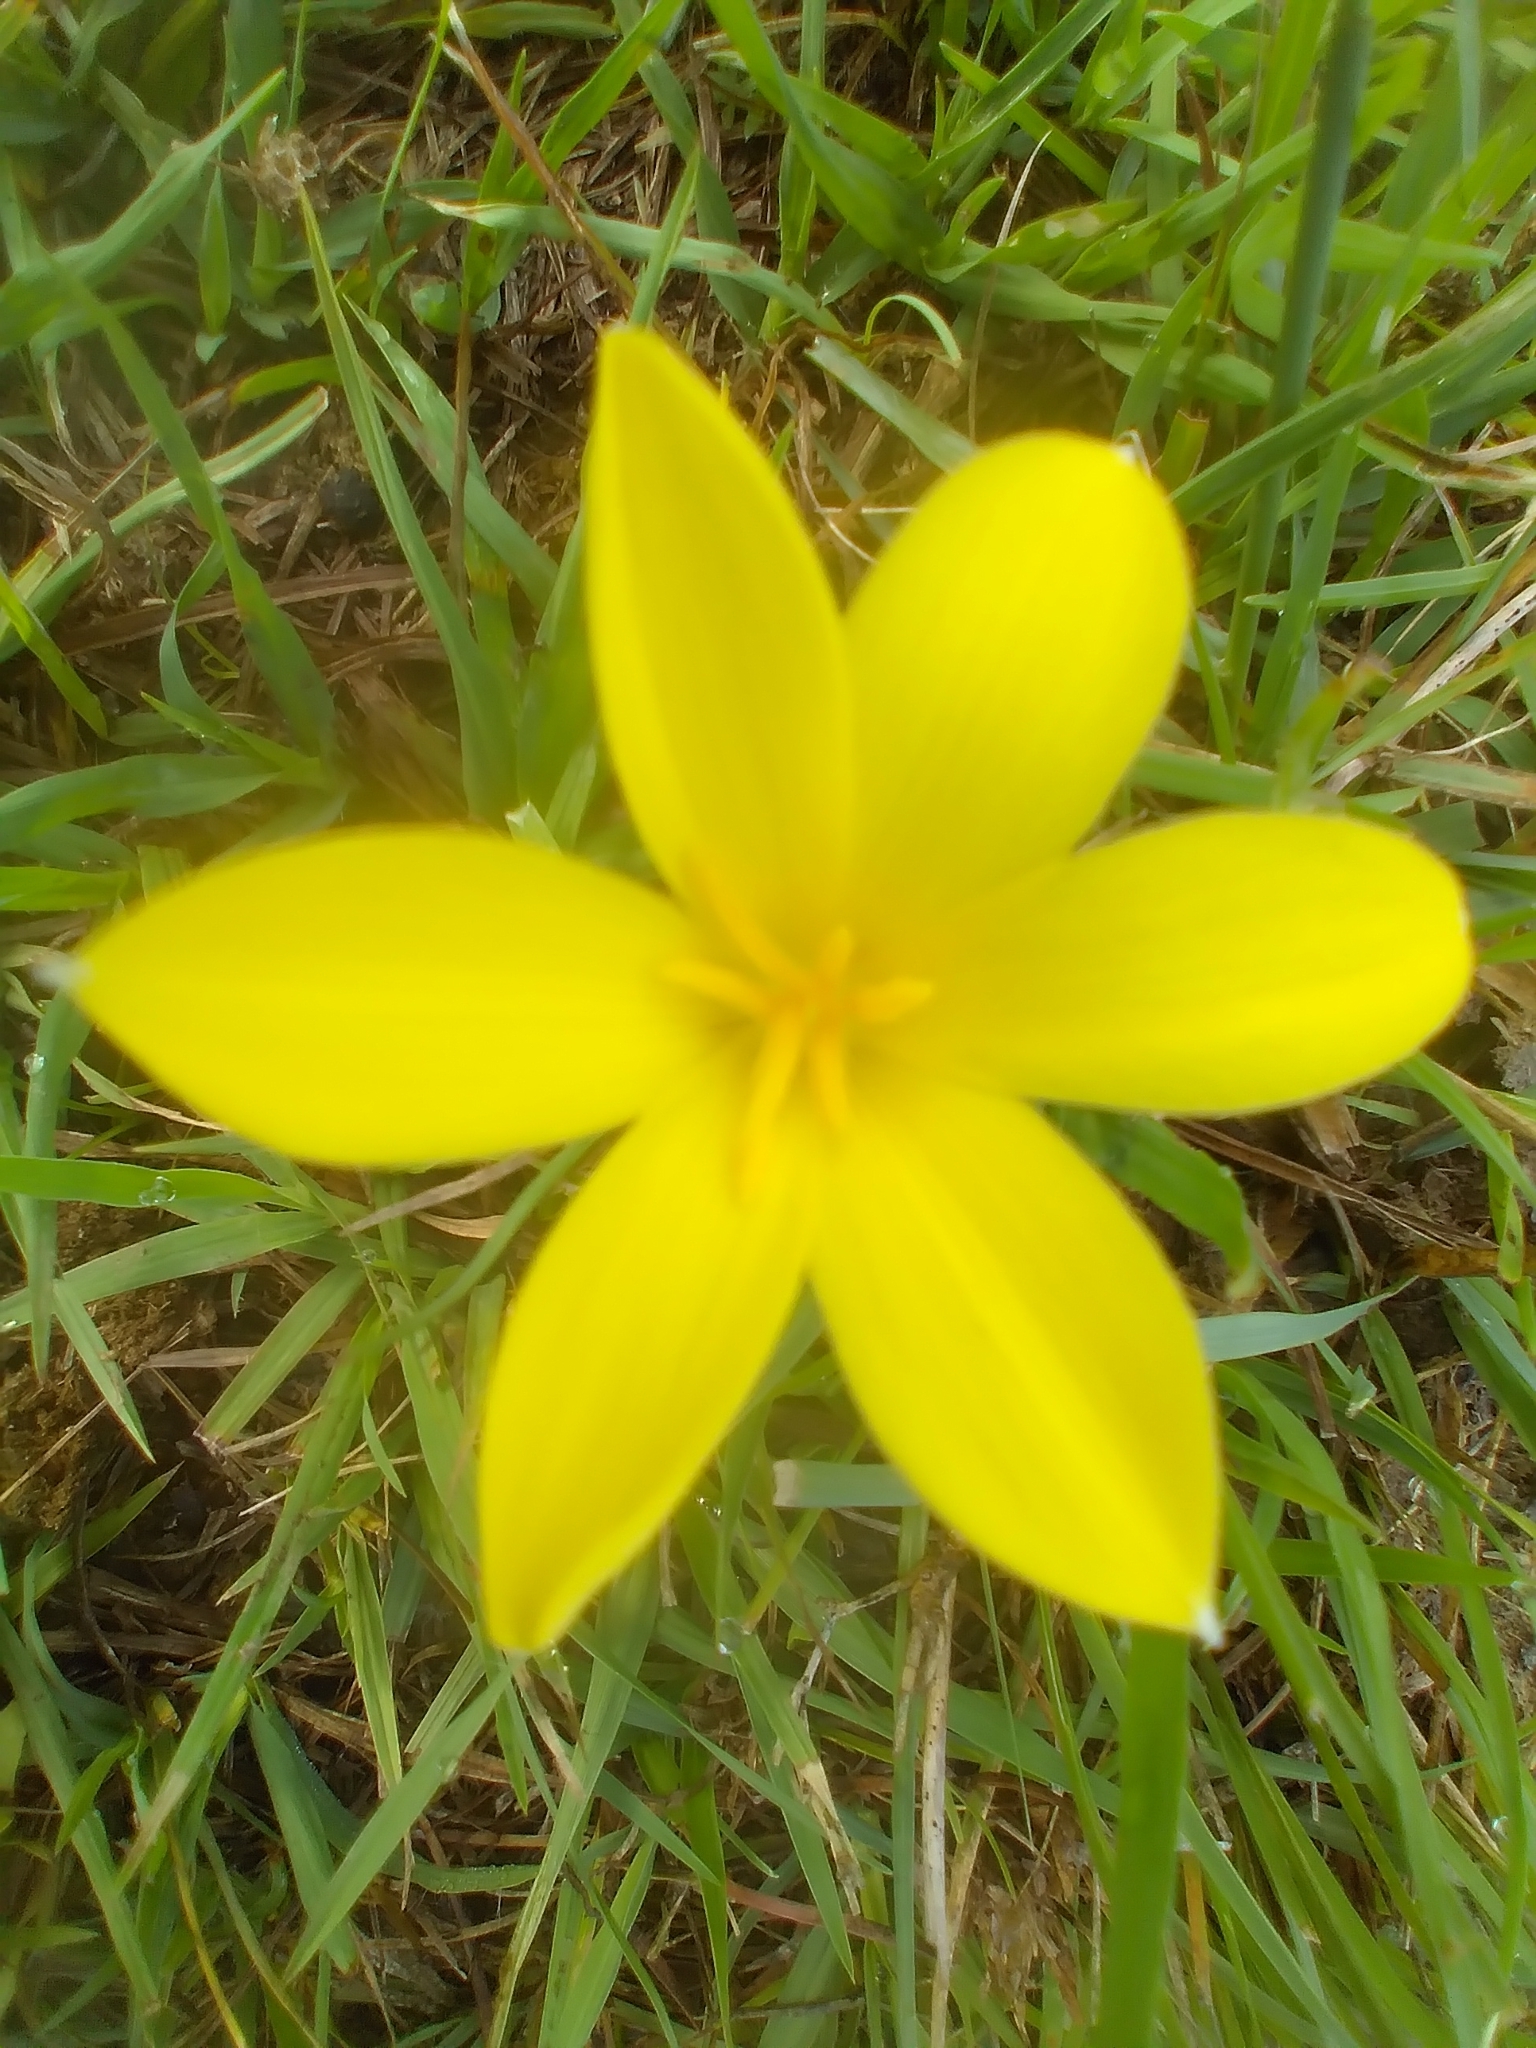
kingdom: Plantae
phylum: Tracheophyta
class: Liliopsida
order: Asparagales
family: Amaryllidaceae
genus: Zephyranthes
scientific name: Zephyranthes americana
